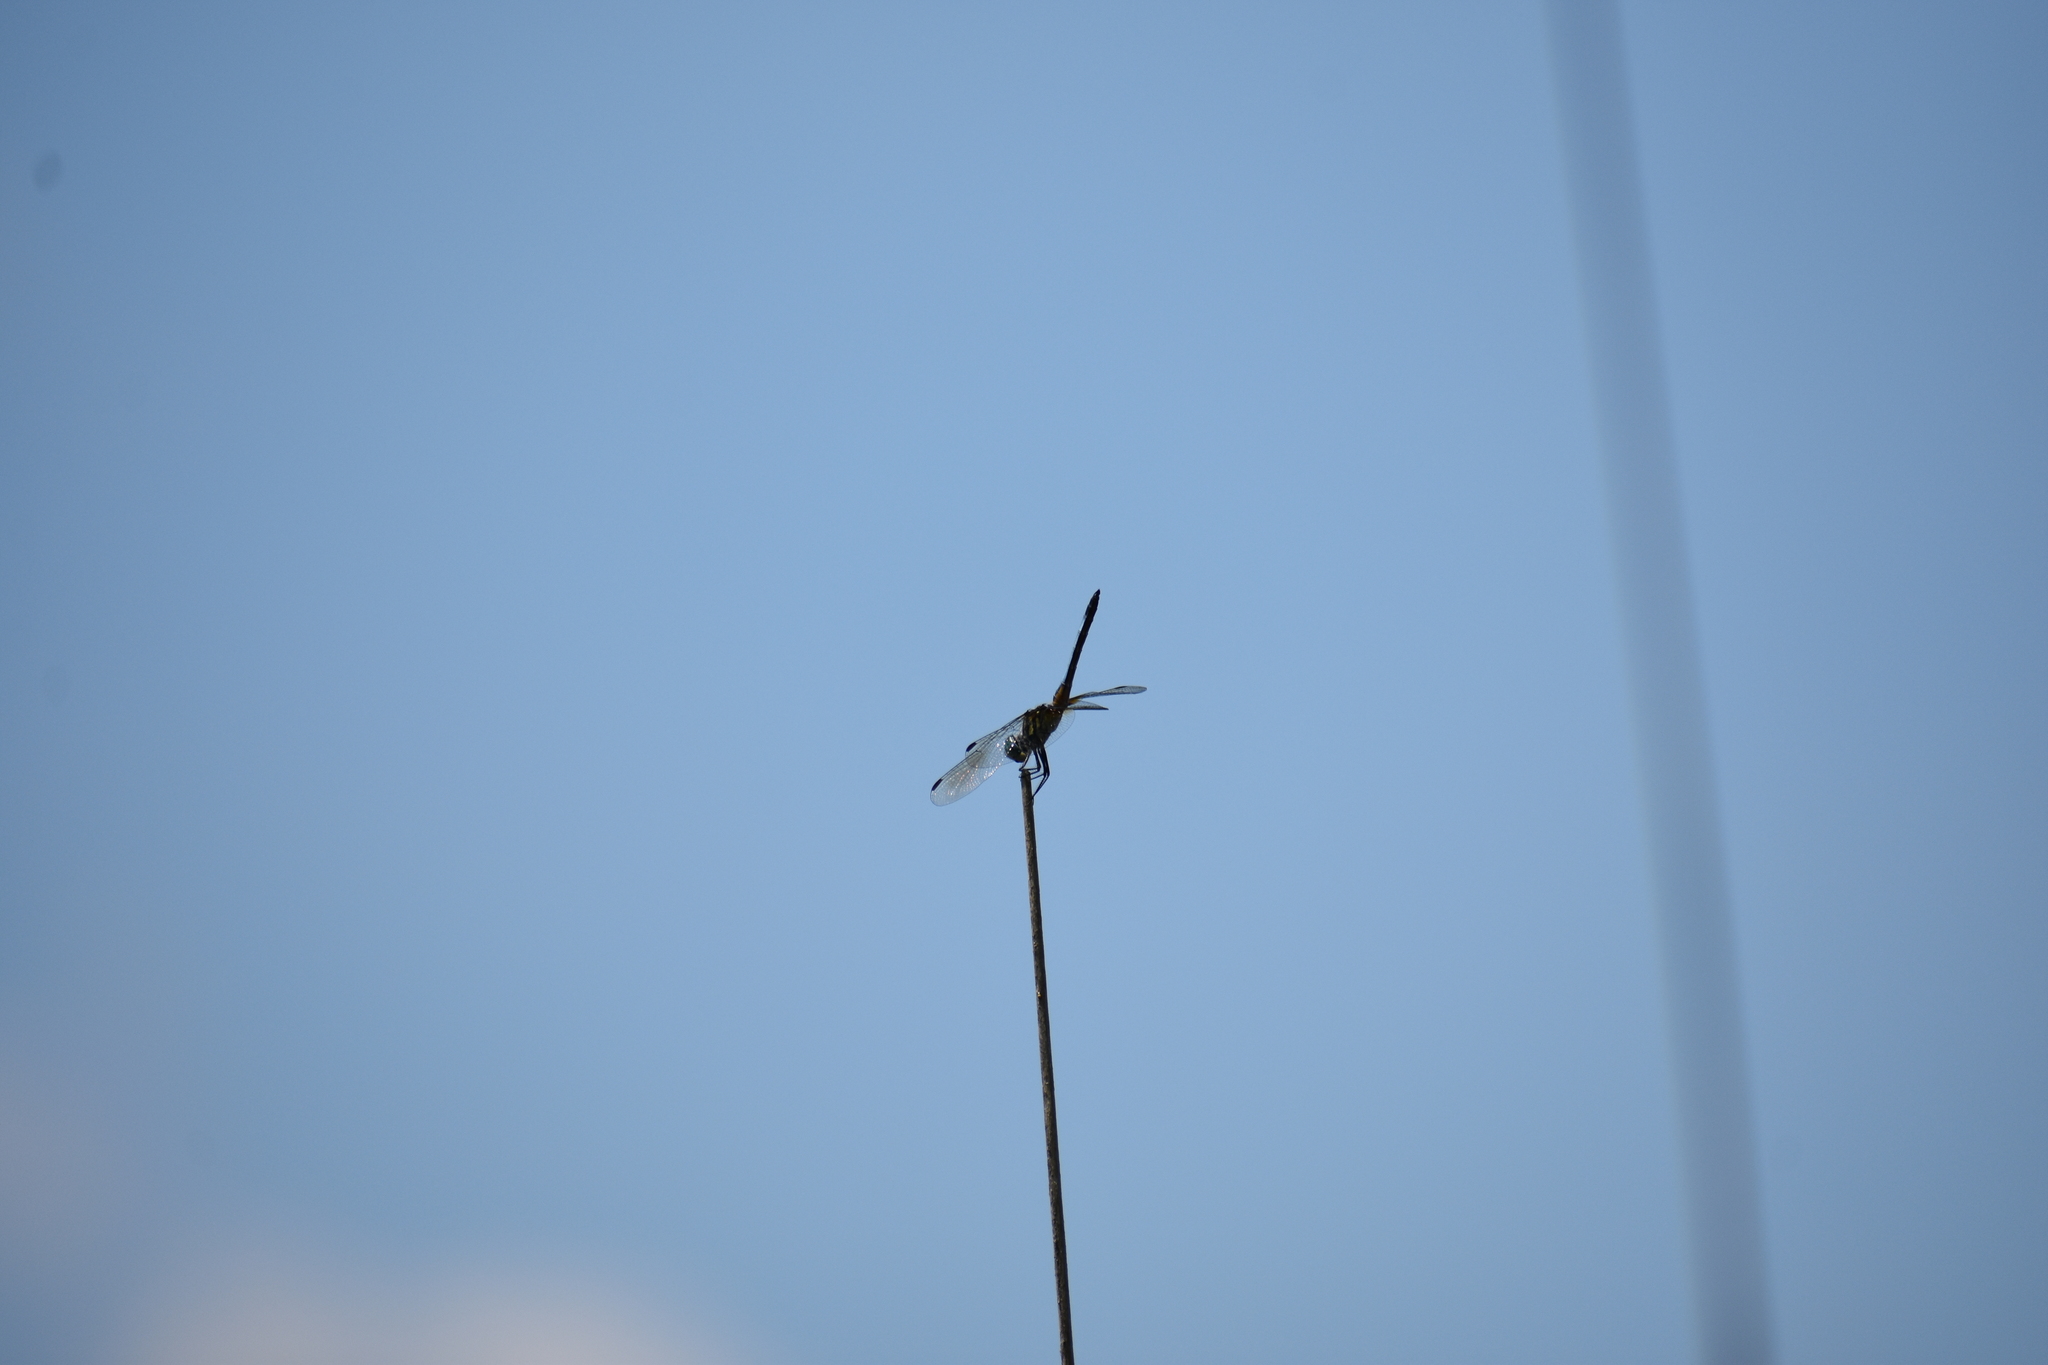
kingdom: Animalia
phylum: Arthropoda
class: Insecta
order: Odonata
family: Libellulidae
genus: Pachydiplax
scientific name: Pachydiplax longipennis
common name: Blue dasher
